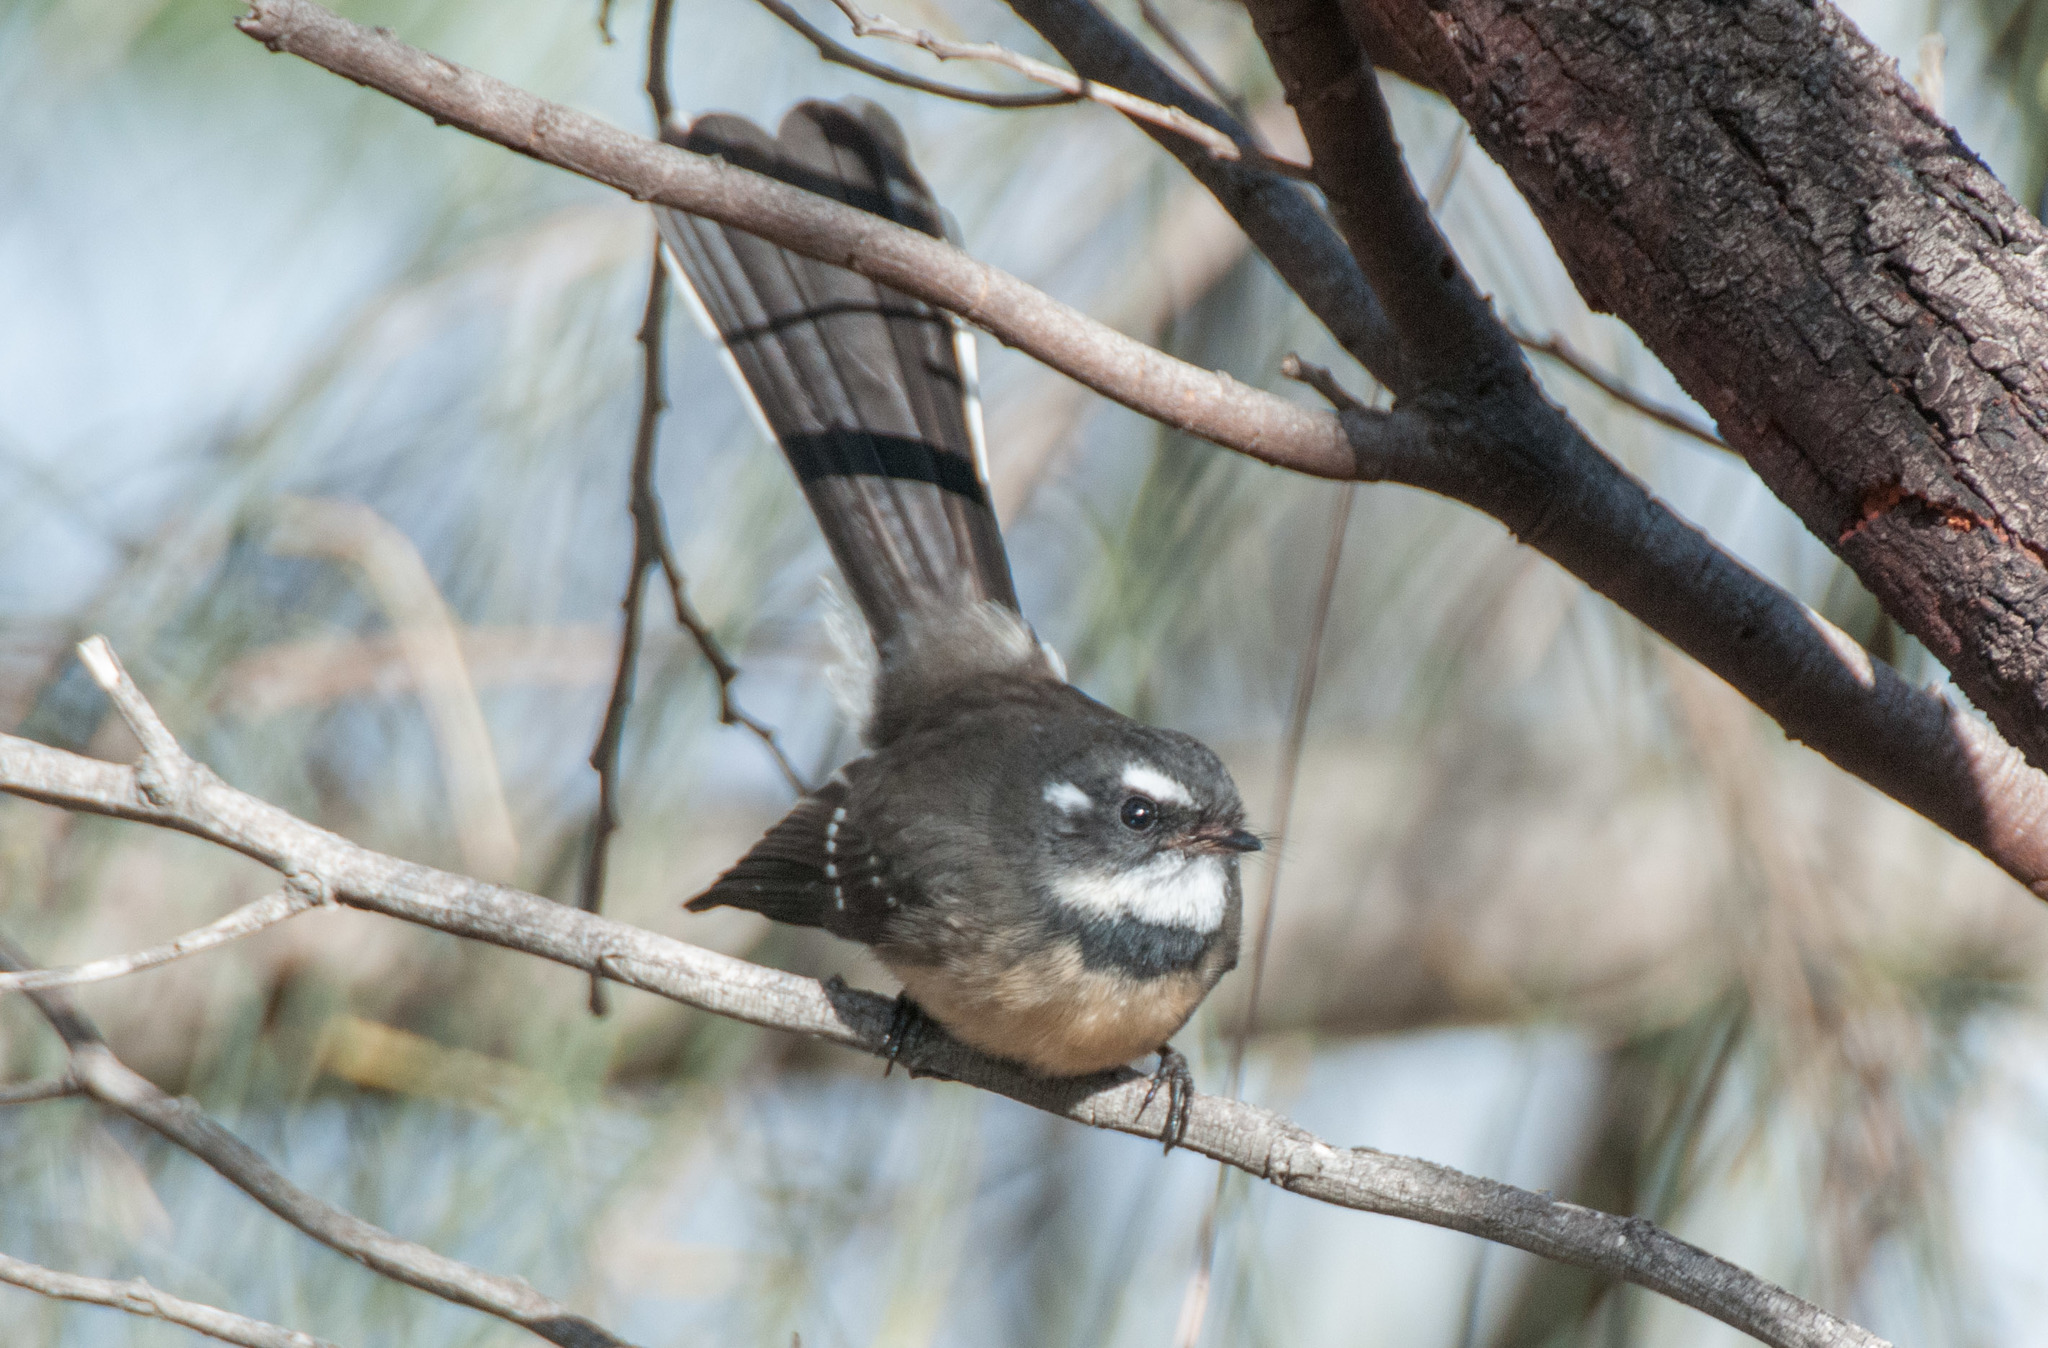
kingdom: Animalia
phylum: Chordata
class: Aves
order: Passeriformes
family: Rhipiduridae
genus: Rhipidura
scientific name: Rhipidura albiscapa
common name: Grey fantail
